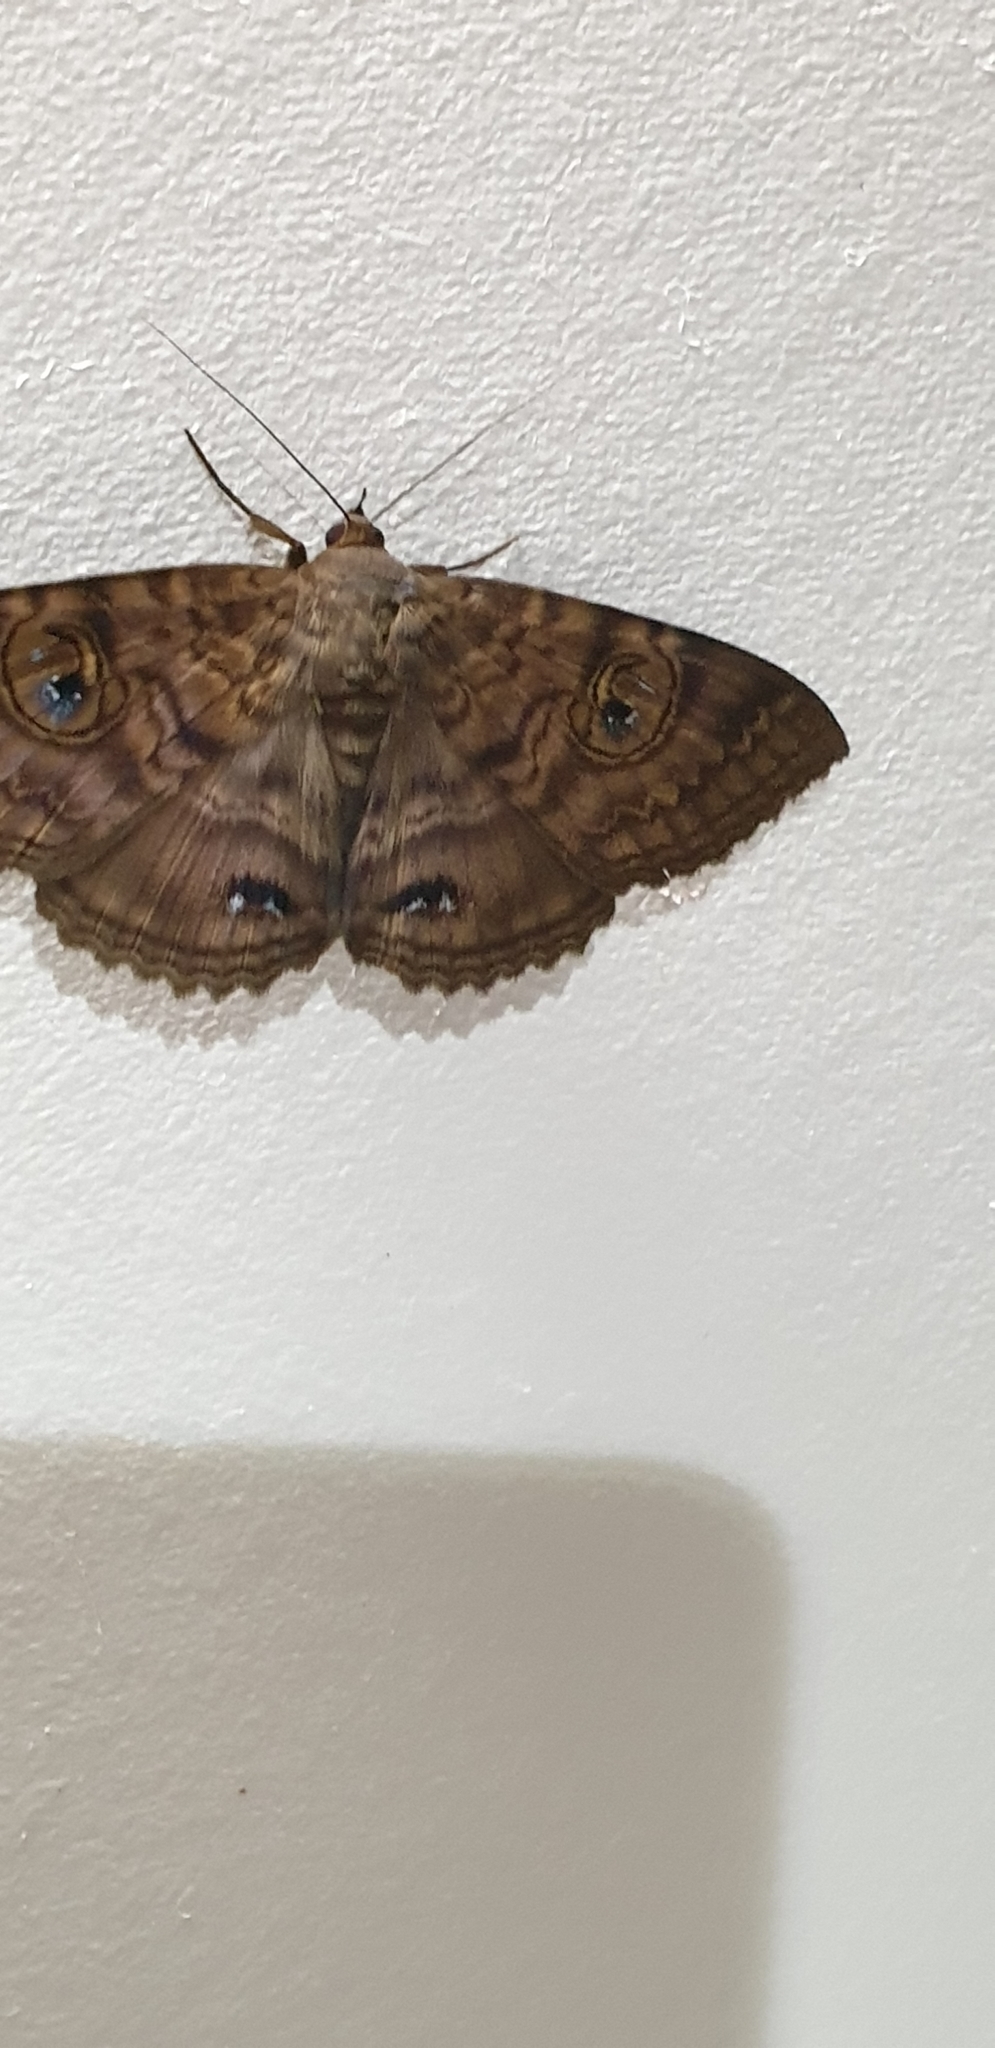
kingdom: Animalia
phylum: Arthropoda
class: Insecta
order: Lepidoptera
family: Erebidae
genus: Speiredonia
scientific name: Speiredonia spectans
